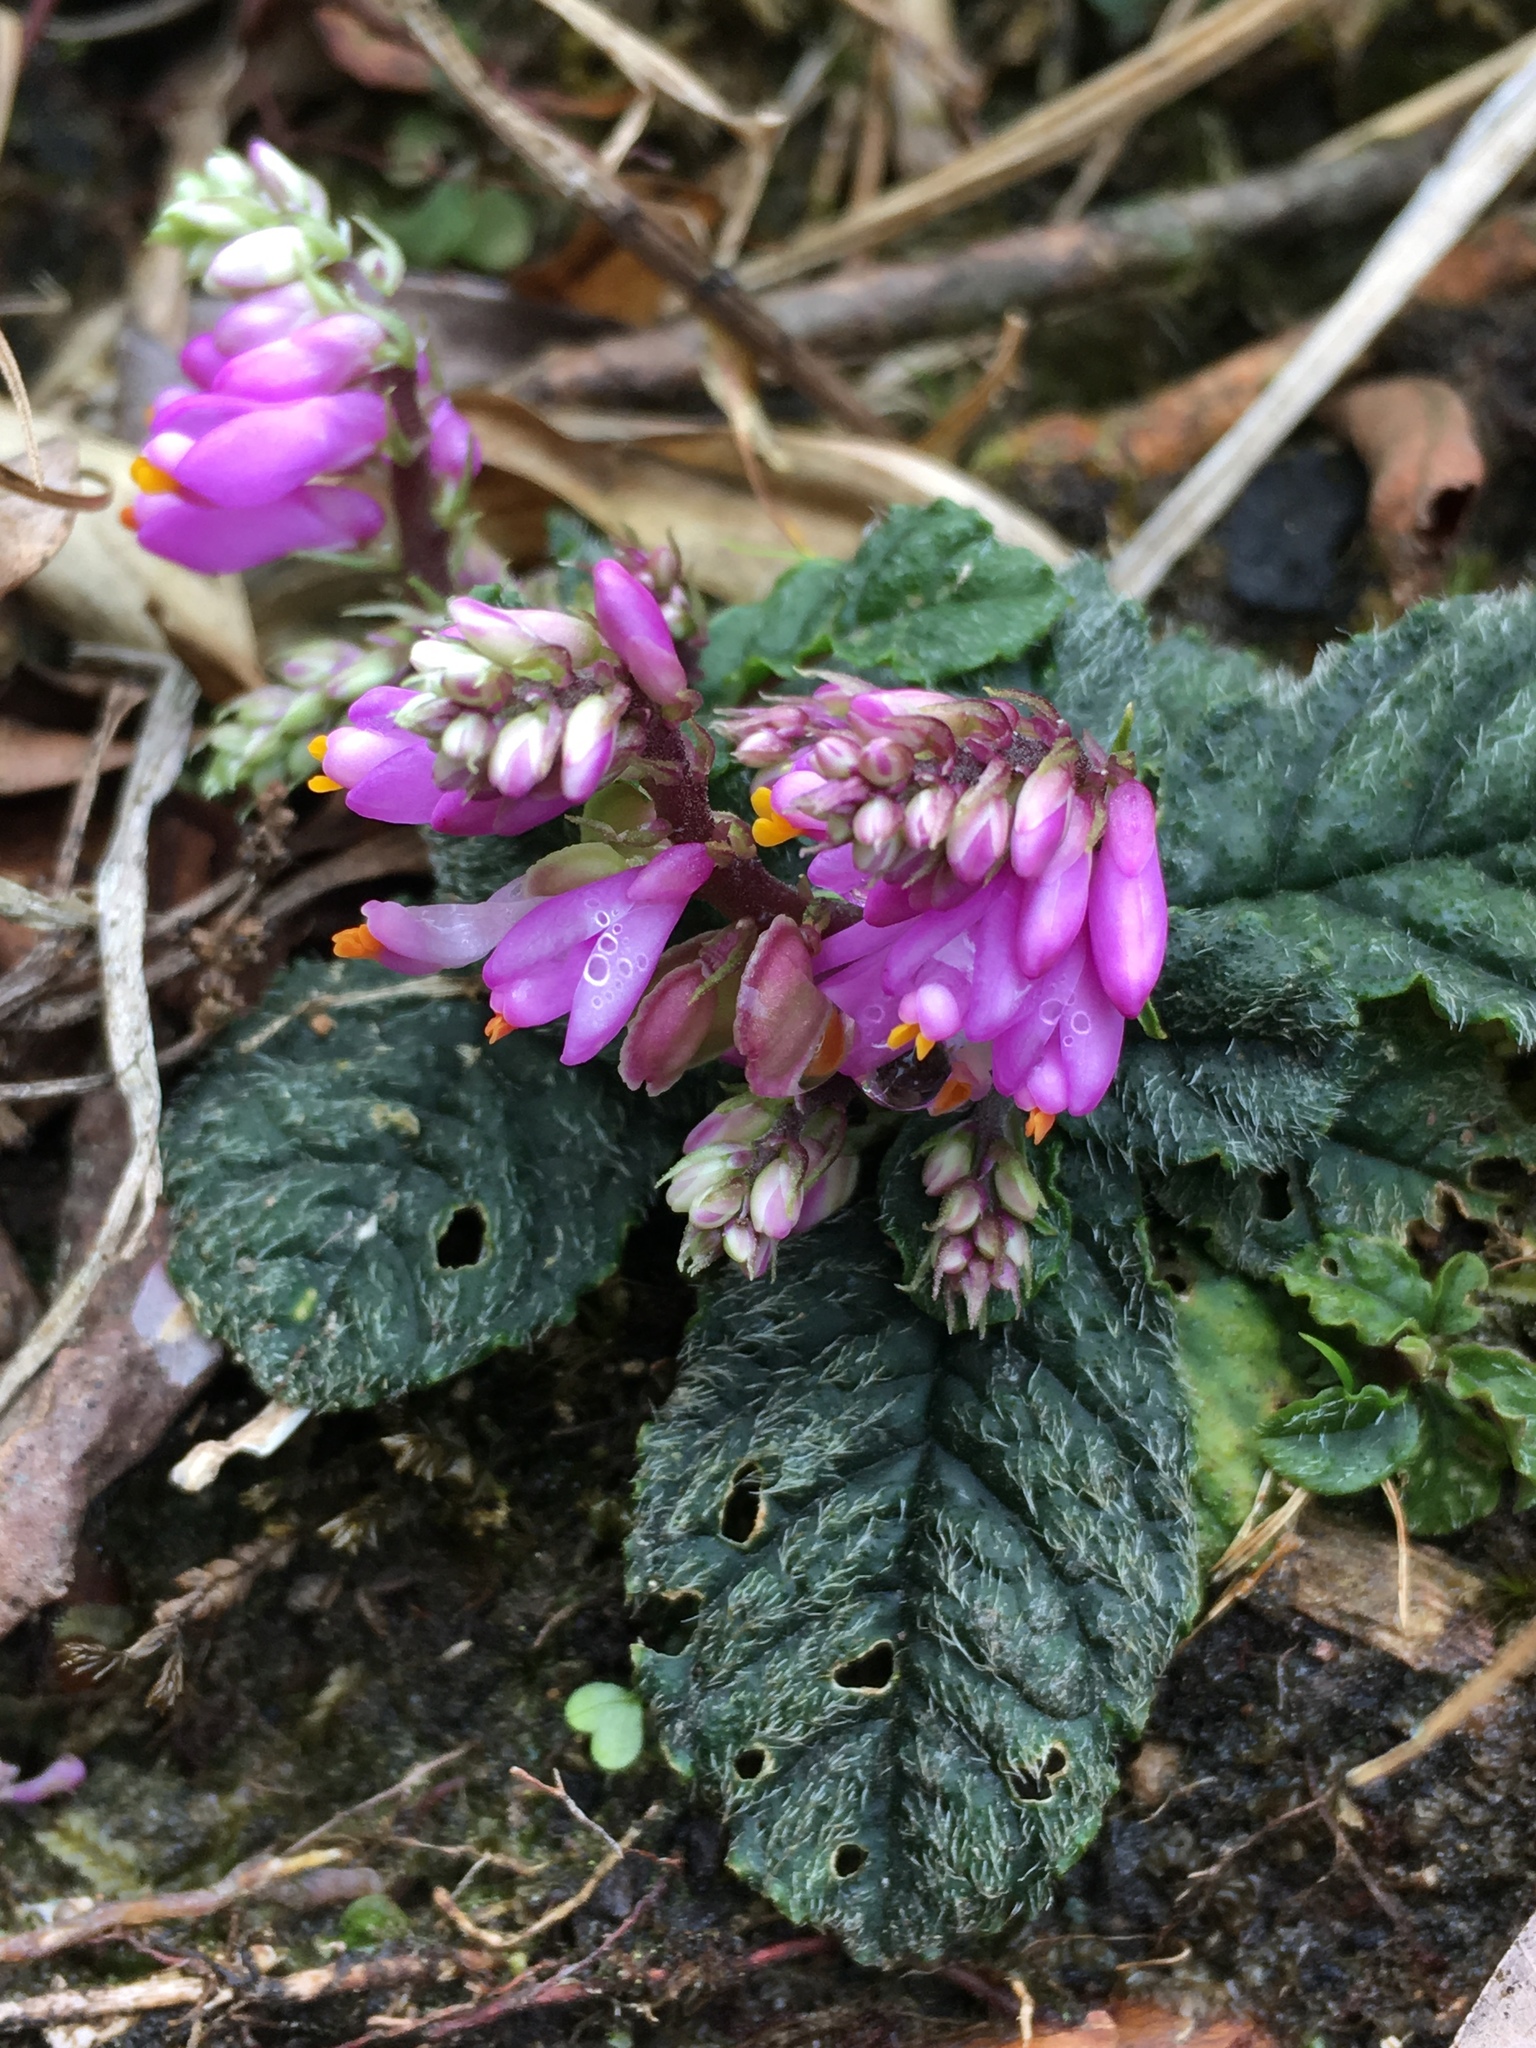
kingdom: Plantae
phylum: Tracheophyta
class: Magnoliopsida
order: Fabales
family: Polygalaceae
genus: Polygala
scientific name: Polygala saxicola
